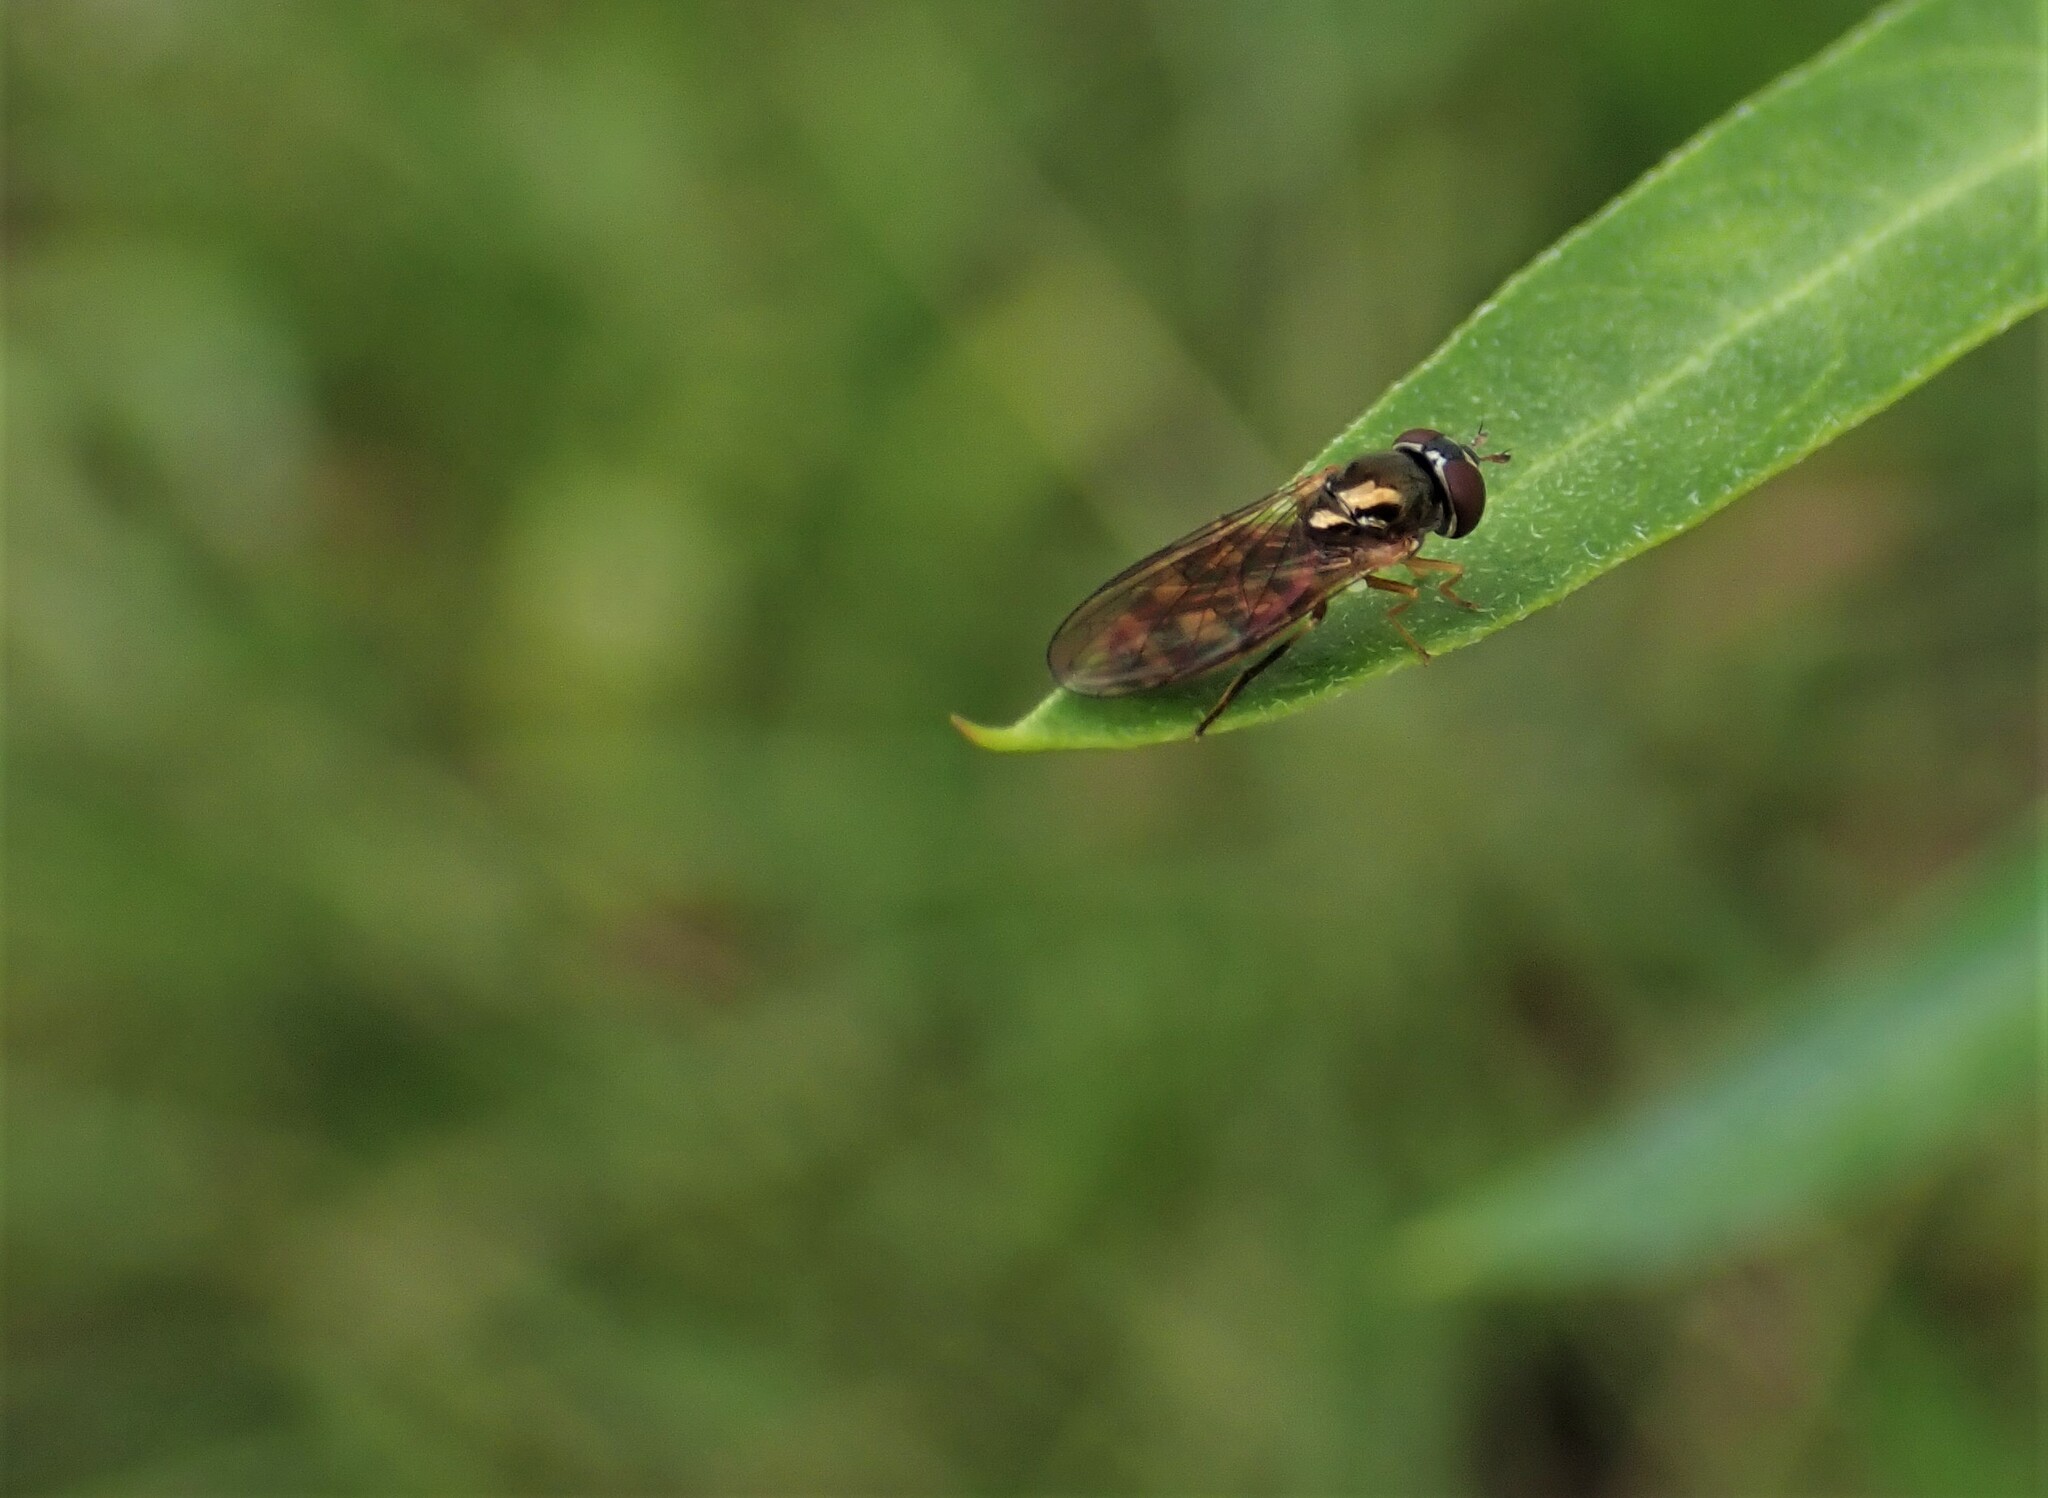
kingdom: Animalia
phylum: Arthropoda
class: Insecta
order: Diptera
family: Syrphidae
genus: Melanostoma
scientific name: Melanostoma fasciatum
